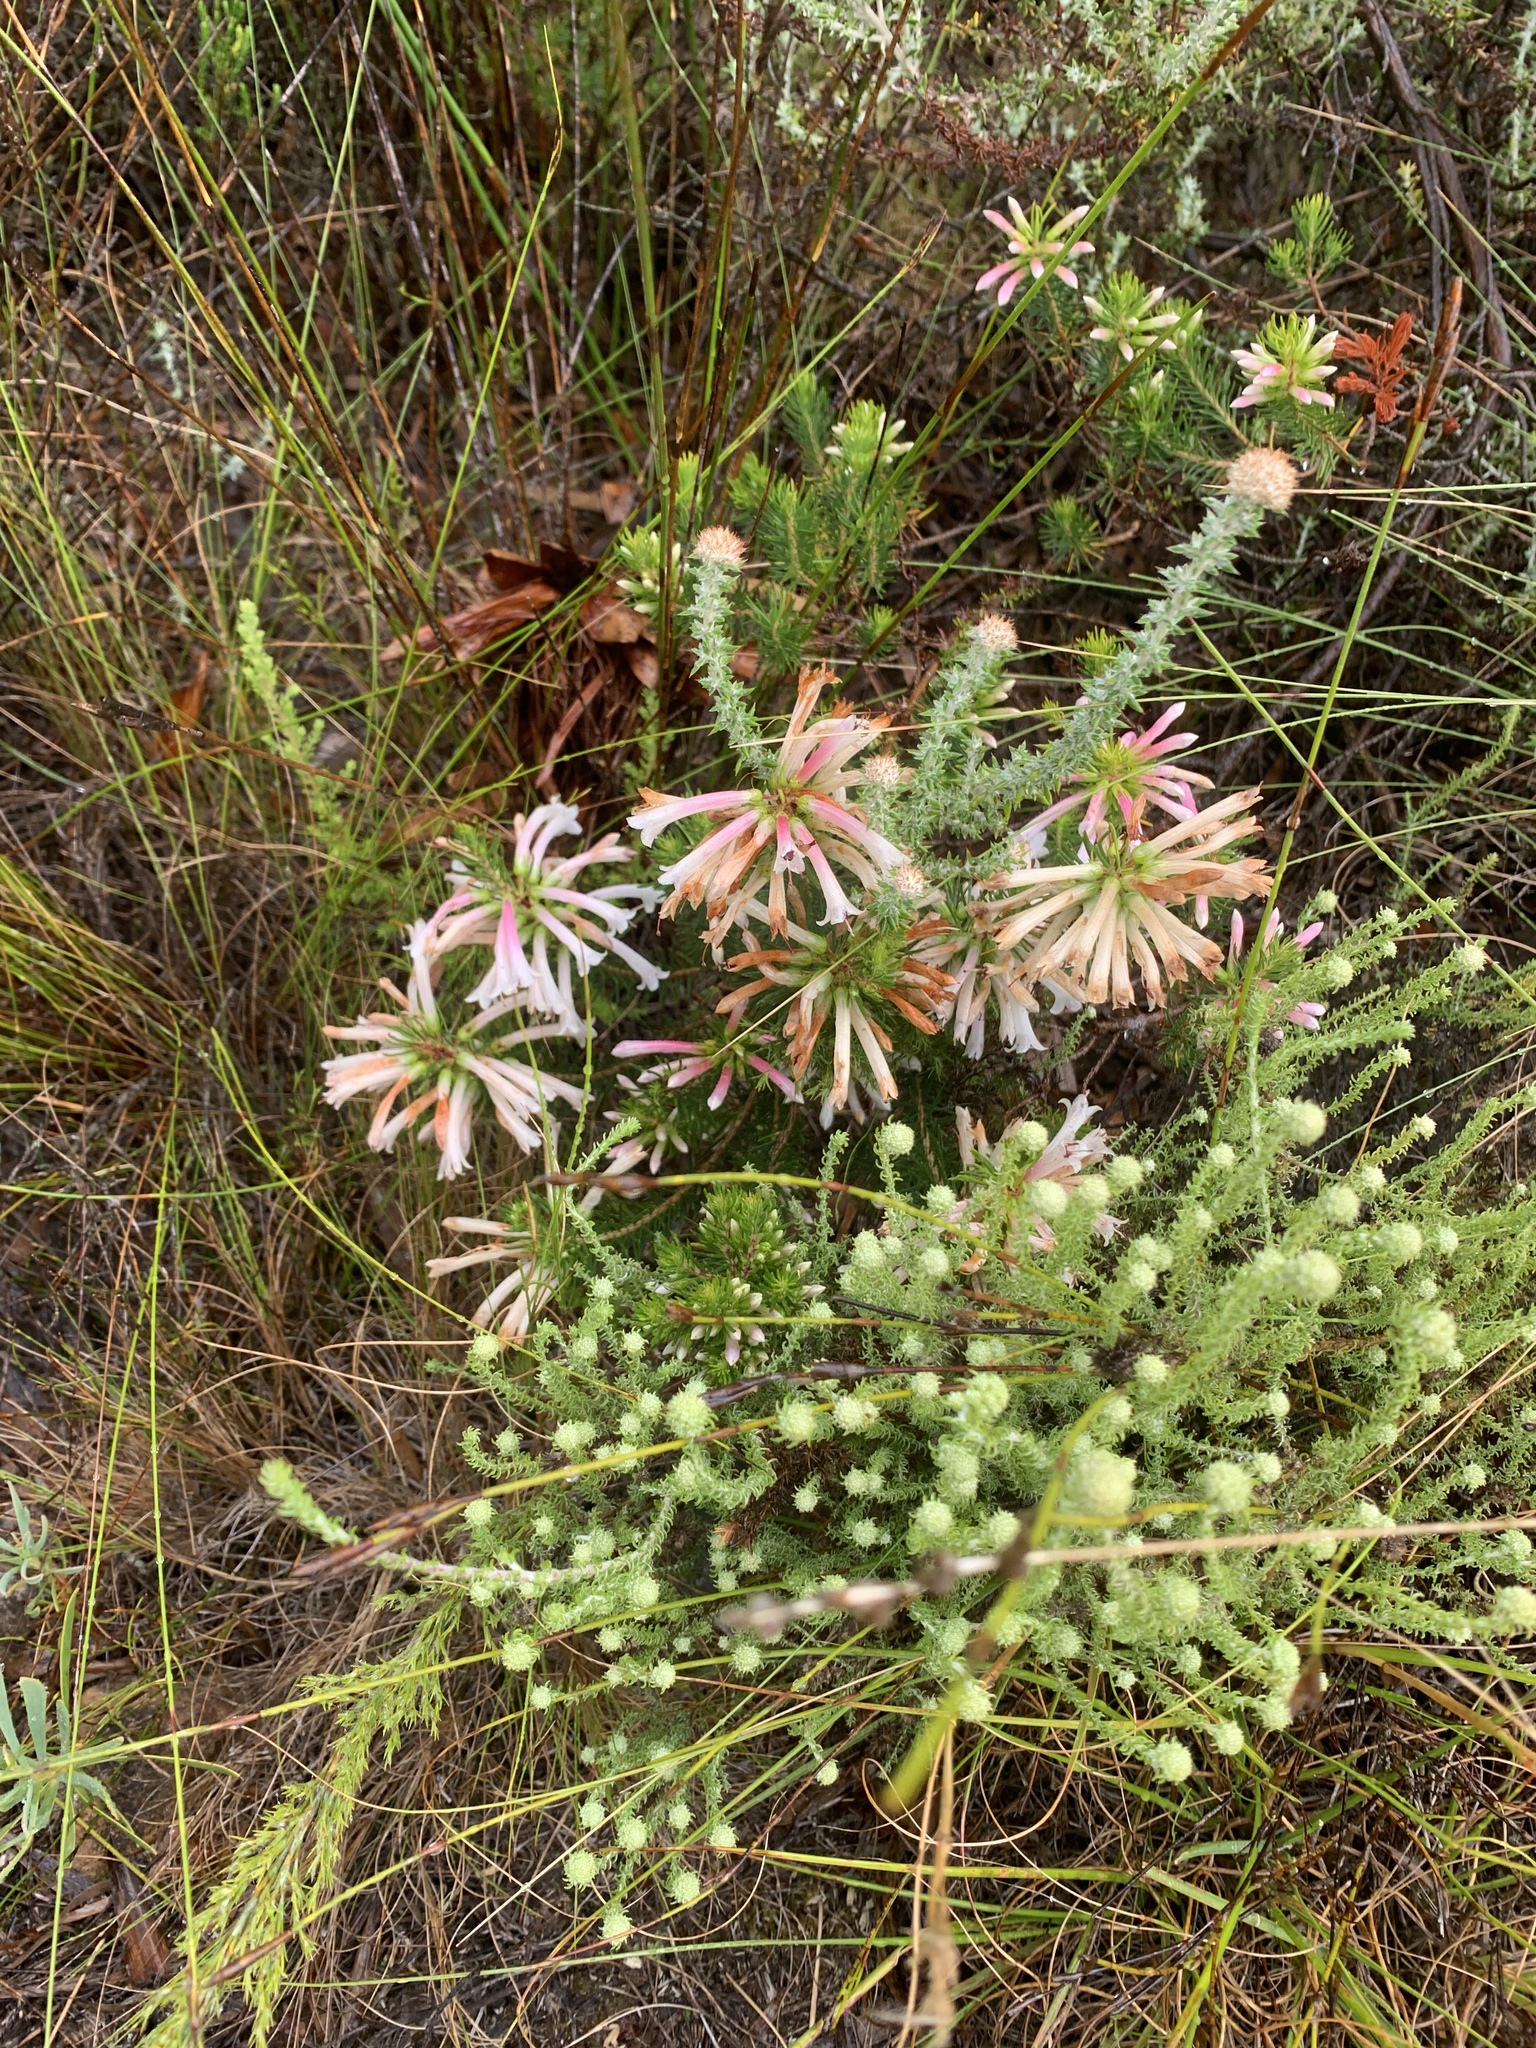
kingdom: Plantae
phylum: Tracheophyta
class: Magnoliopsida
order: Ericales
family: Ericaceae
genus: Erica
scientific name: Erica grandiflora
